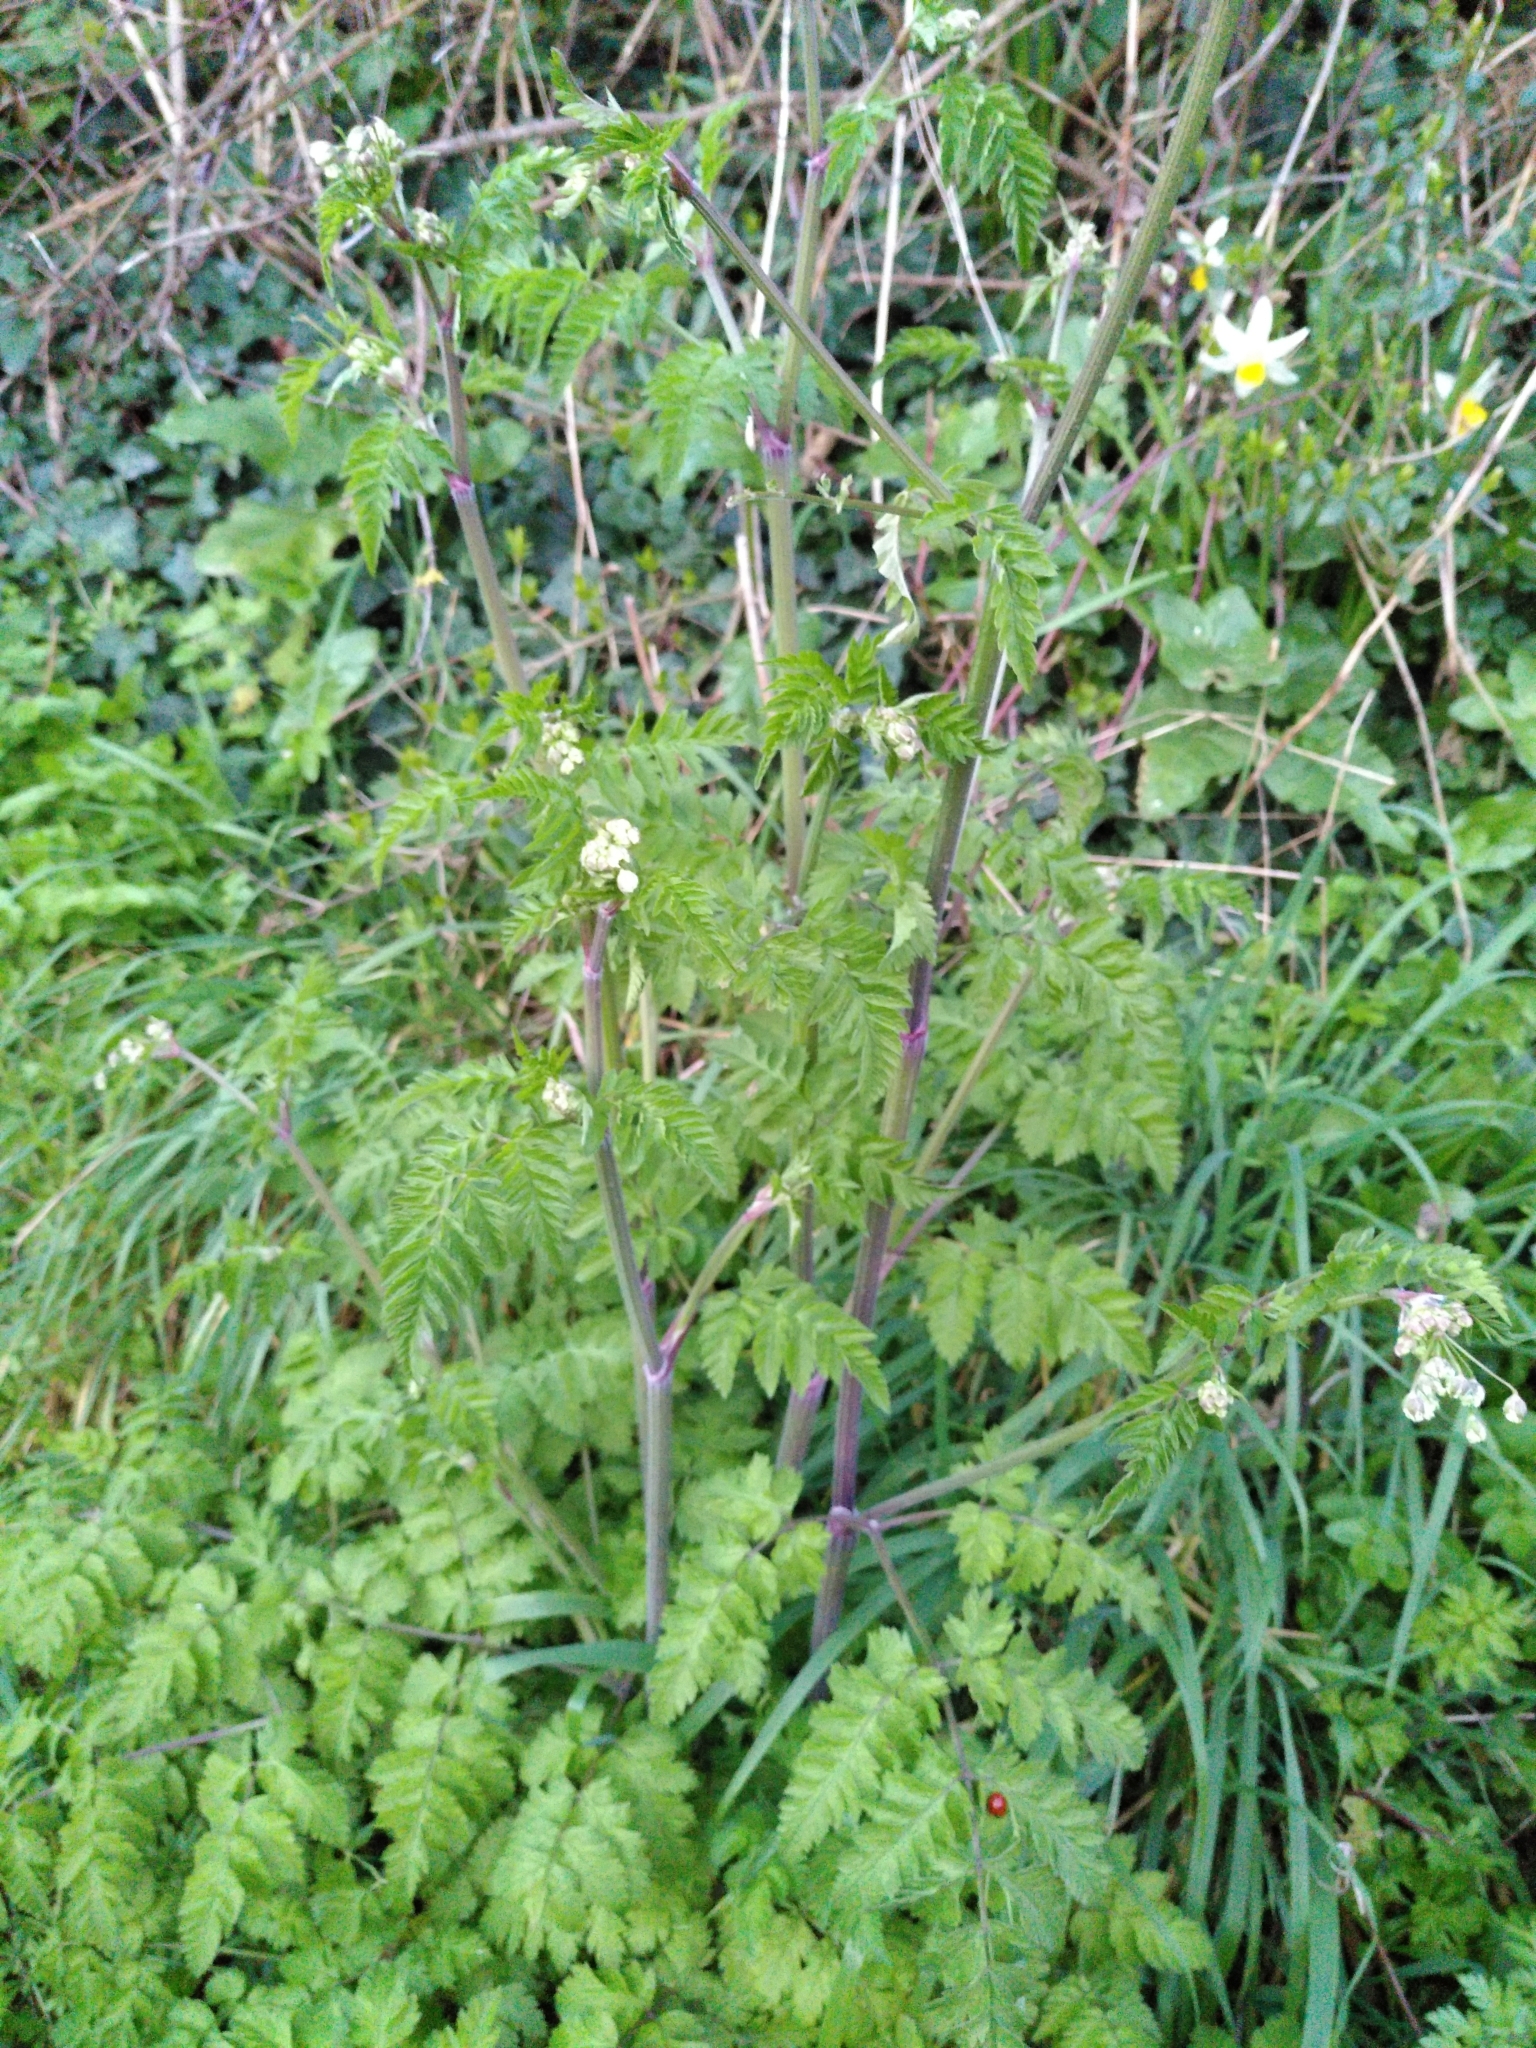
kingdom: Plantae
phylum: Tracheophyta
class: Magnoliopsida
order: Apiales
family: Apiaceae
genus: Anthriscus
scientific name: Anthriscus sylvestris
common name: Cow parsley
